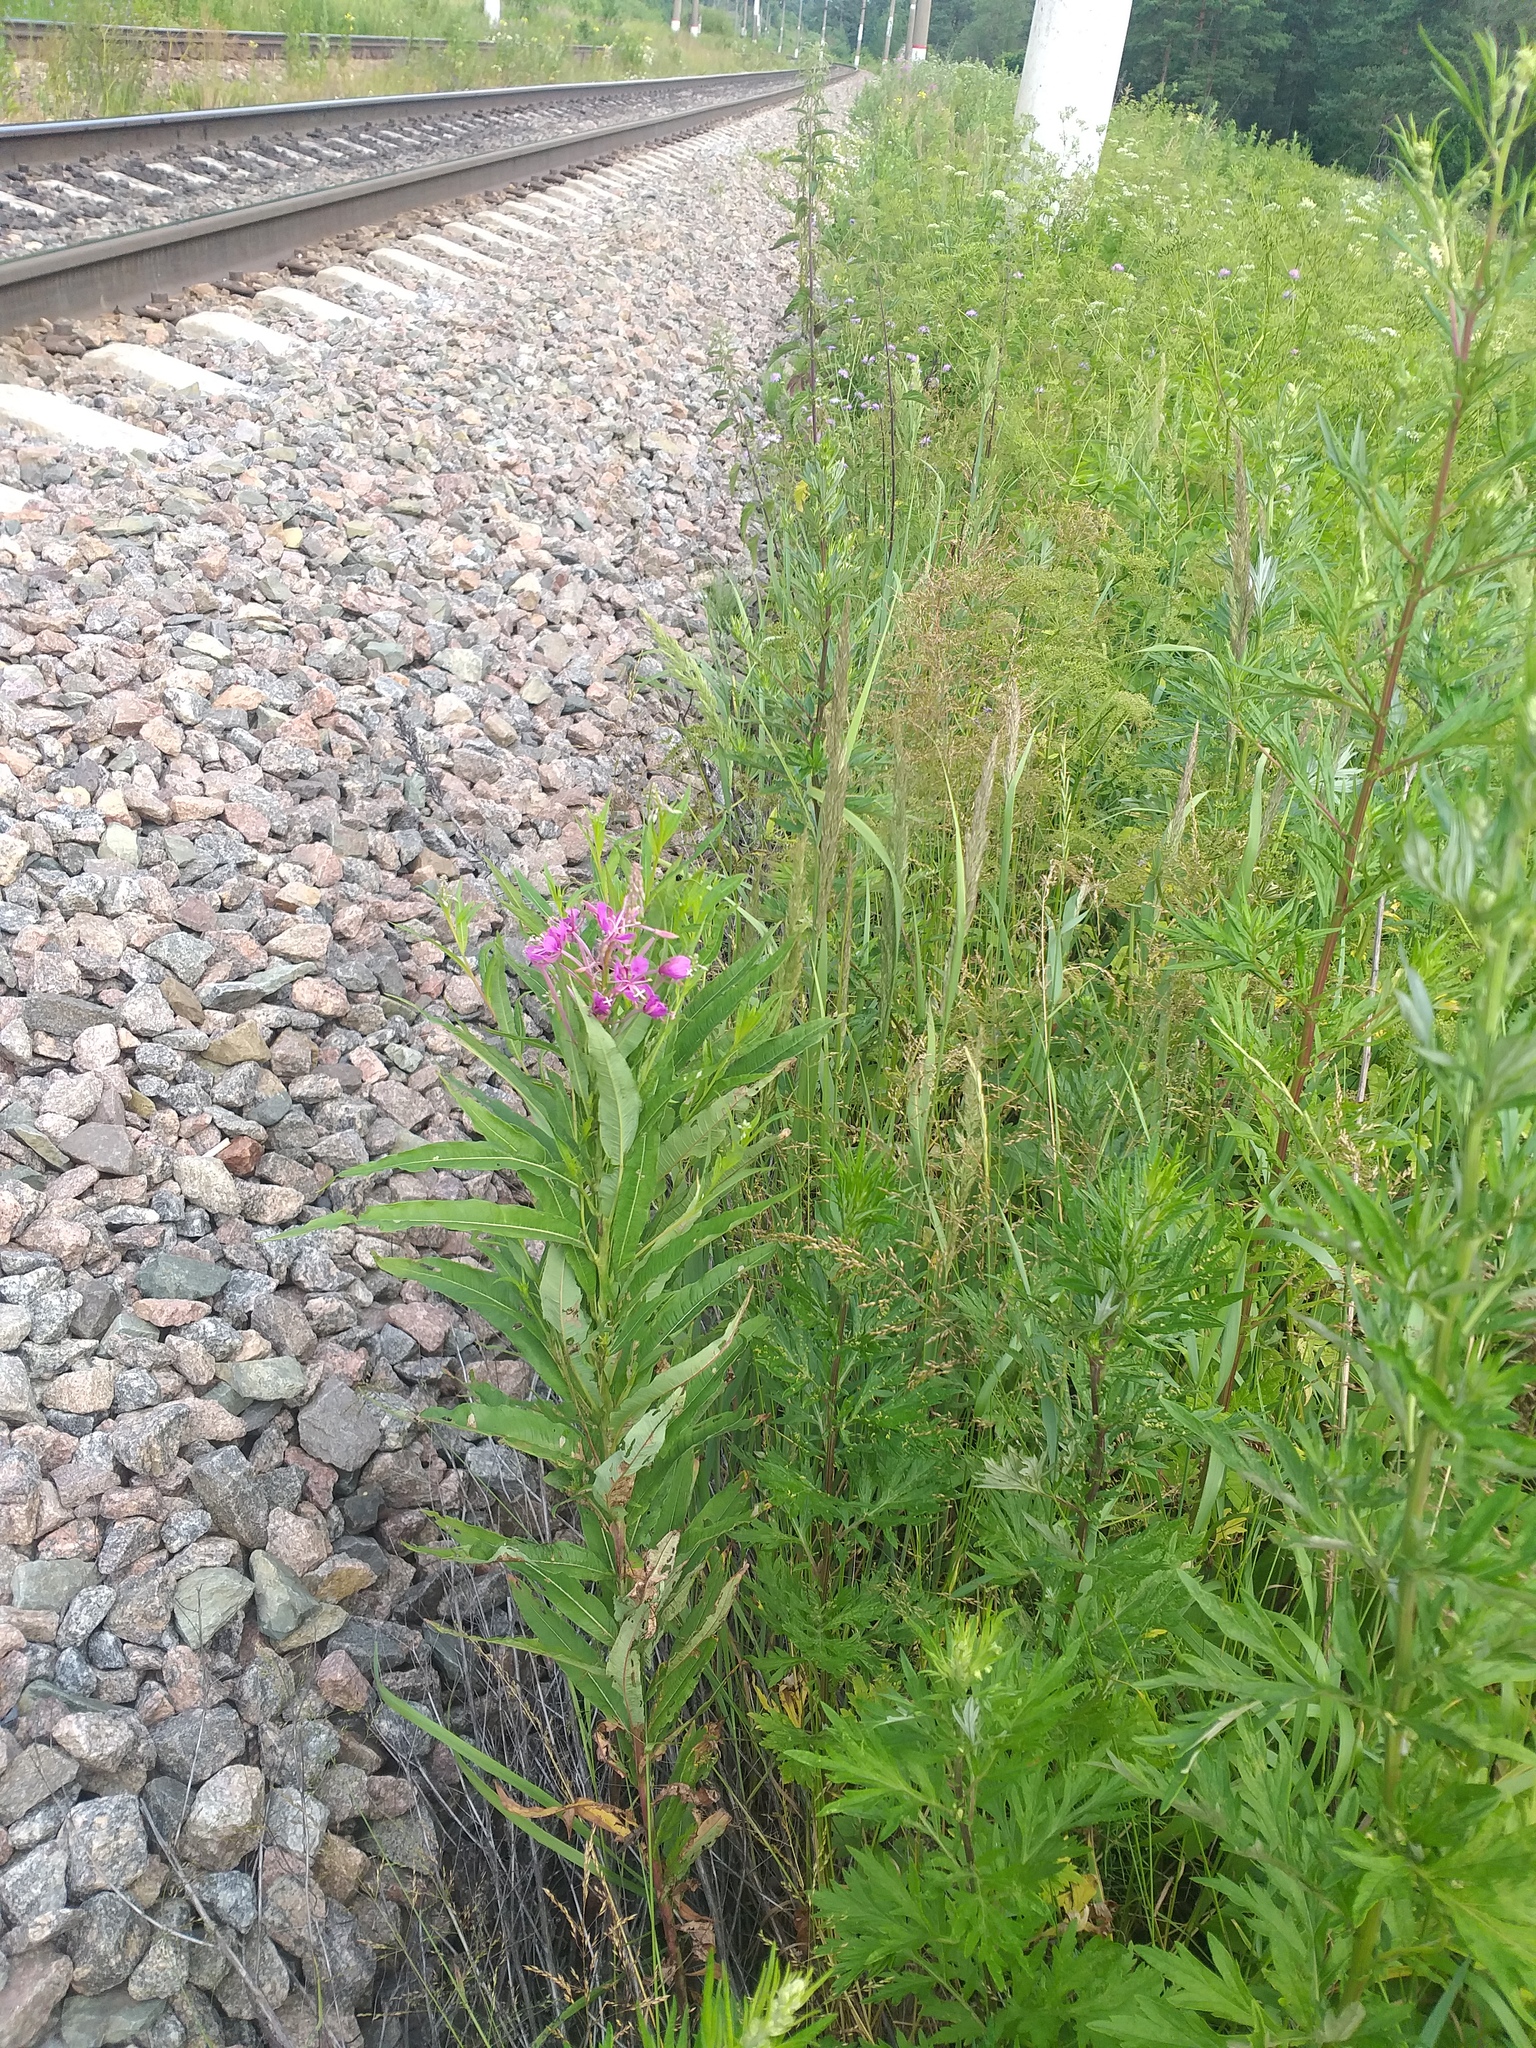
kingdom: Plantae
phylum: Tracheophyta
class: Magnoliopsida
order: Myrtales
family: Onagraceae
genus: Chamaenerion
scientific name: Chamaenerion angustifolium
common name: Fireweed
